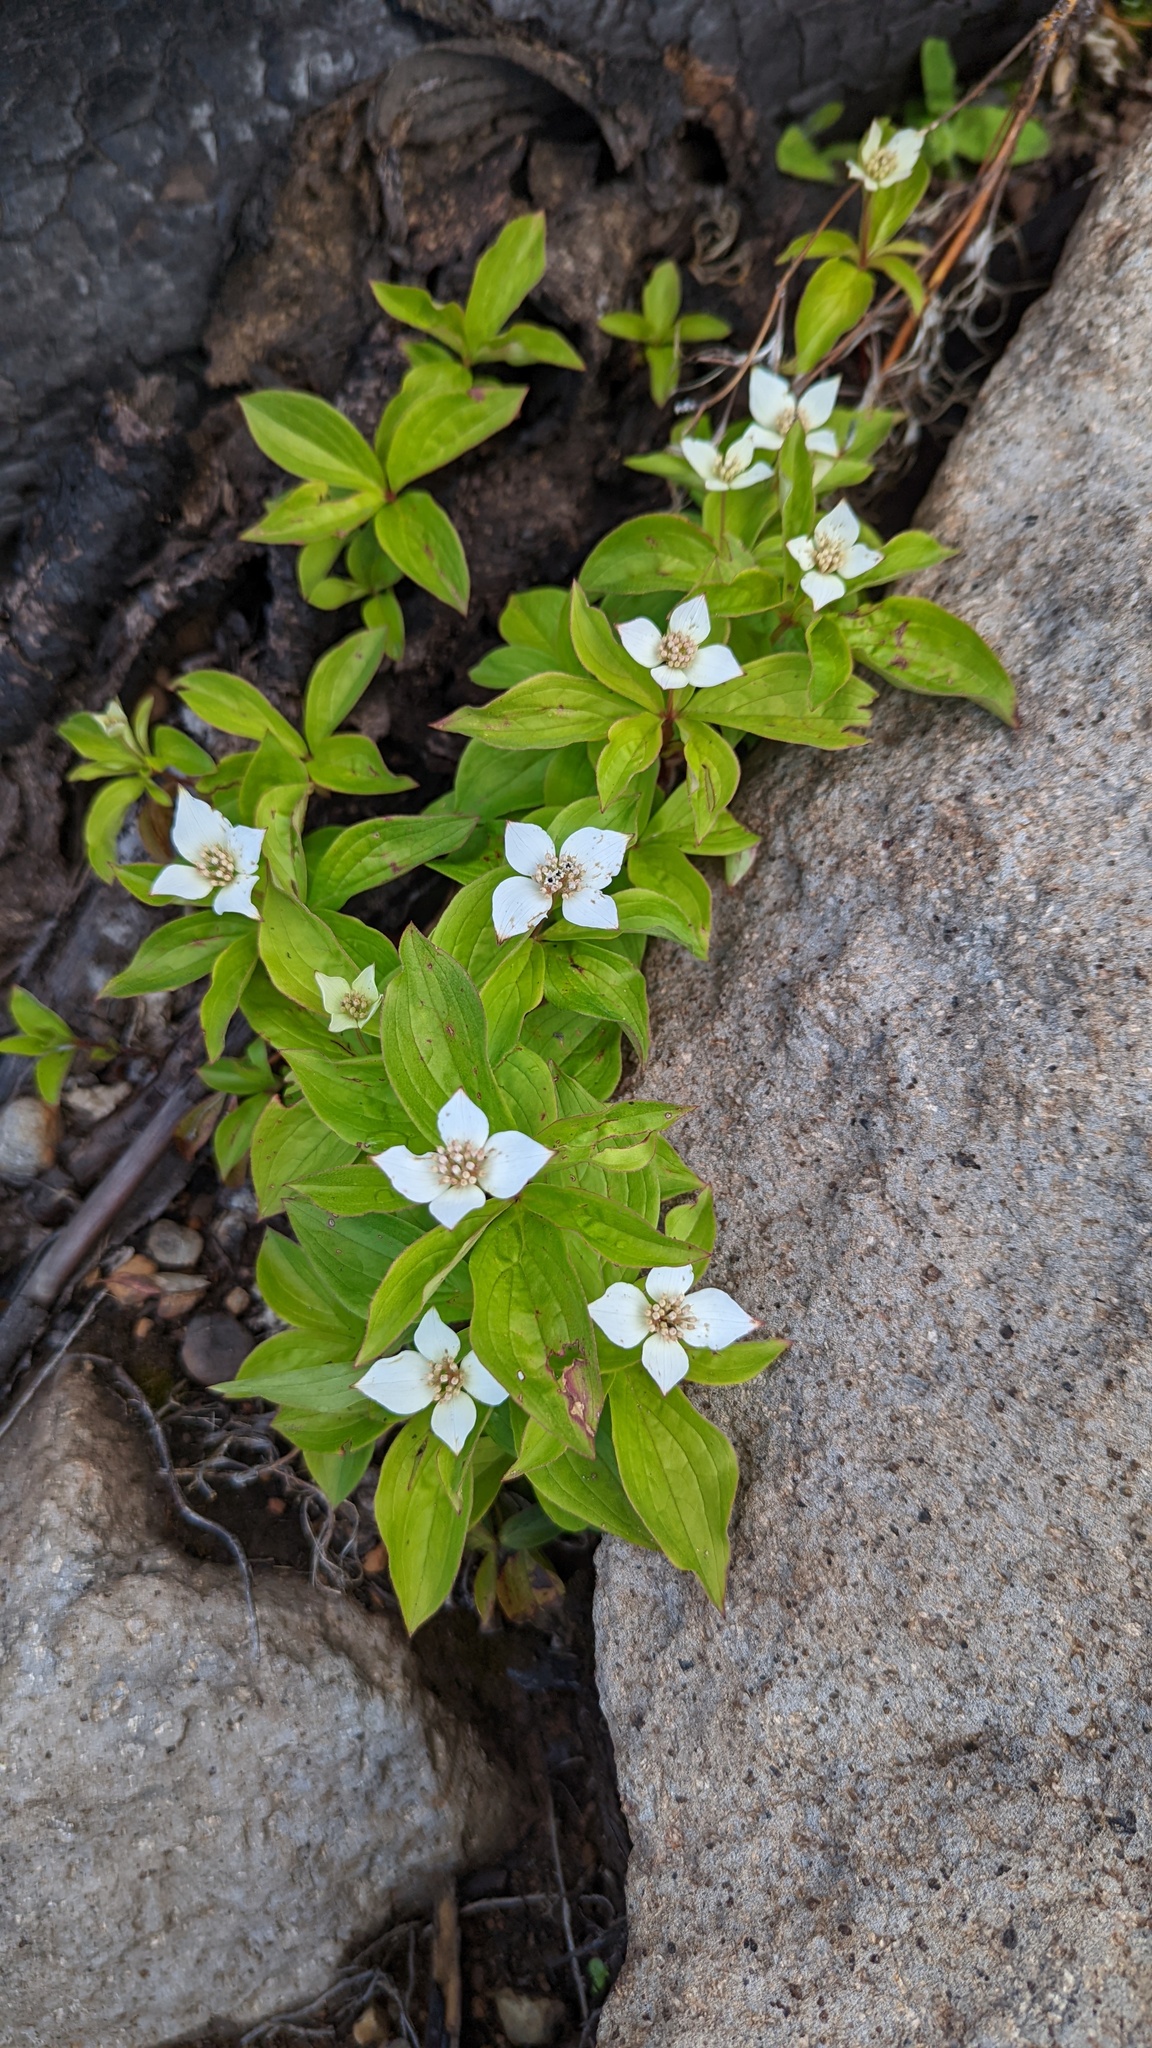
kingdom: Plantae
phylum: Tracheophyta
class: Magnoliopsida
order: Cornales
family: Cornaceae
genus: Cornus
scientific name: Cornus canadensis
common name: Creeping dogwood
